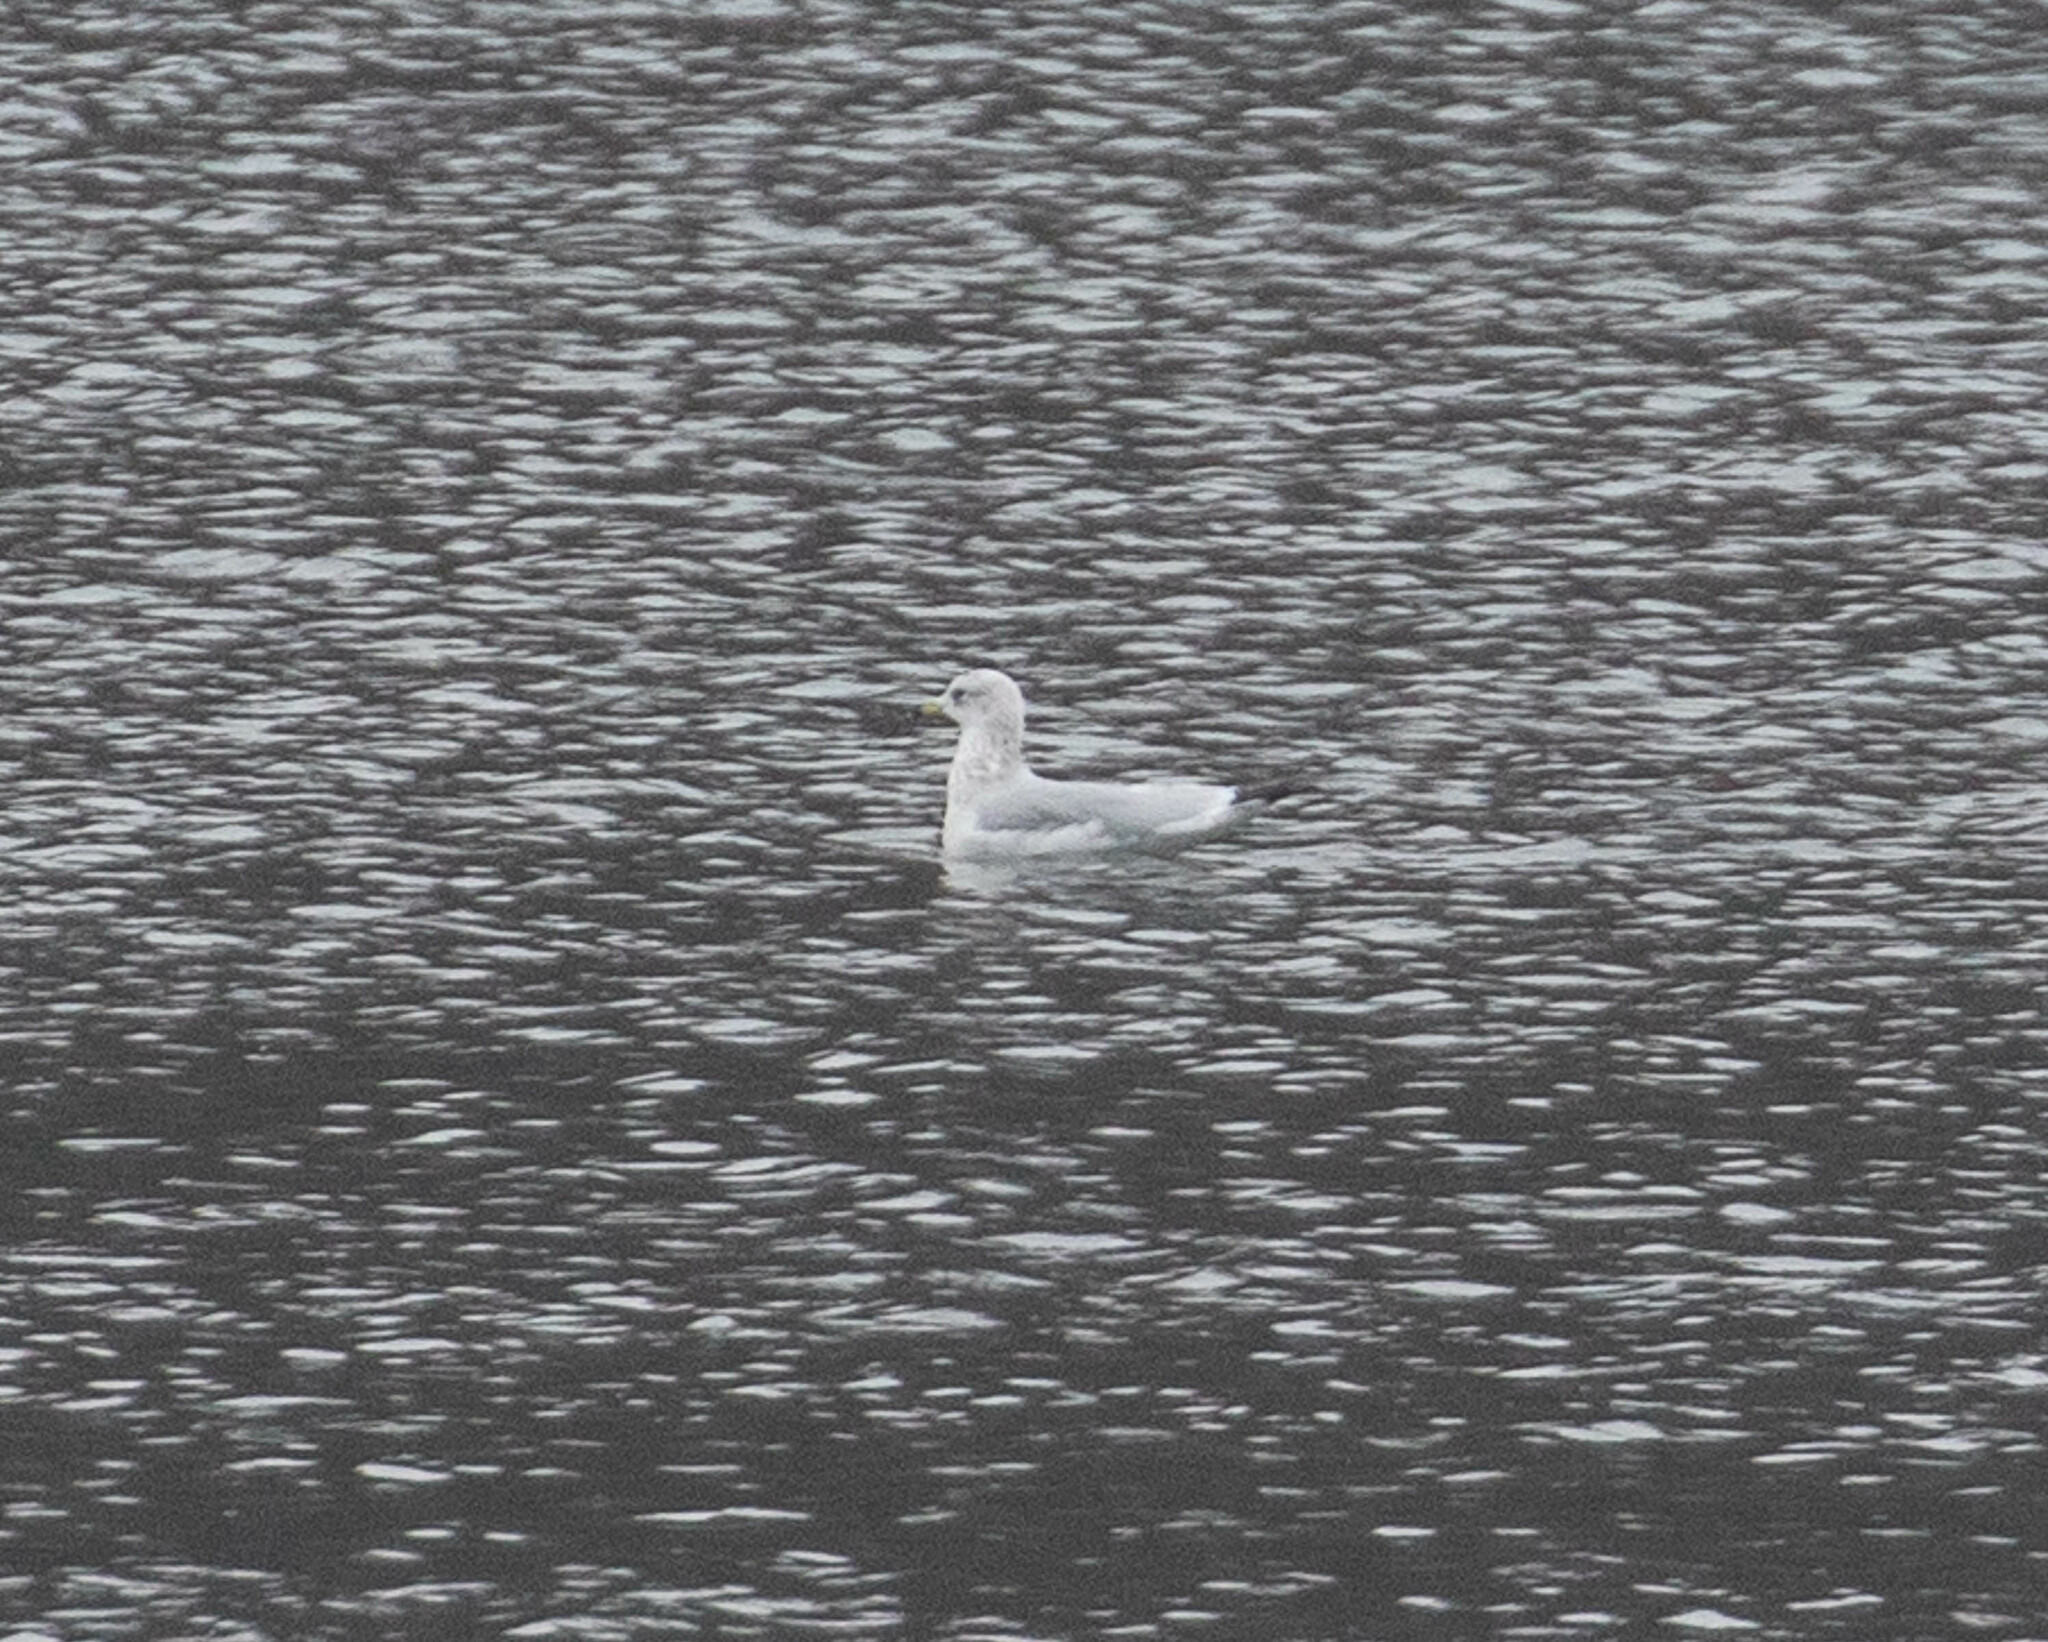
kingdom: Animalia
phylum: Chordata
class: Aves
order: Charadriiformes
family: Laridae
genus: Larus
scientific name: Larus delawarensis
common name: Ring-billed gull
